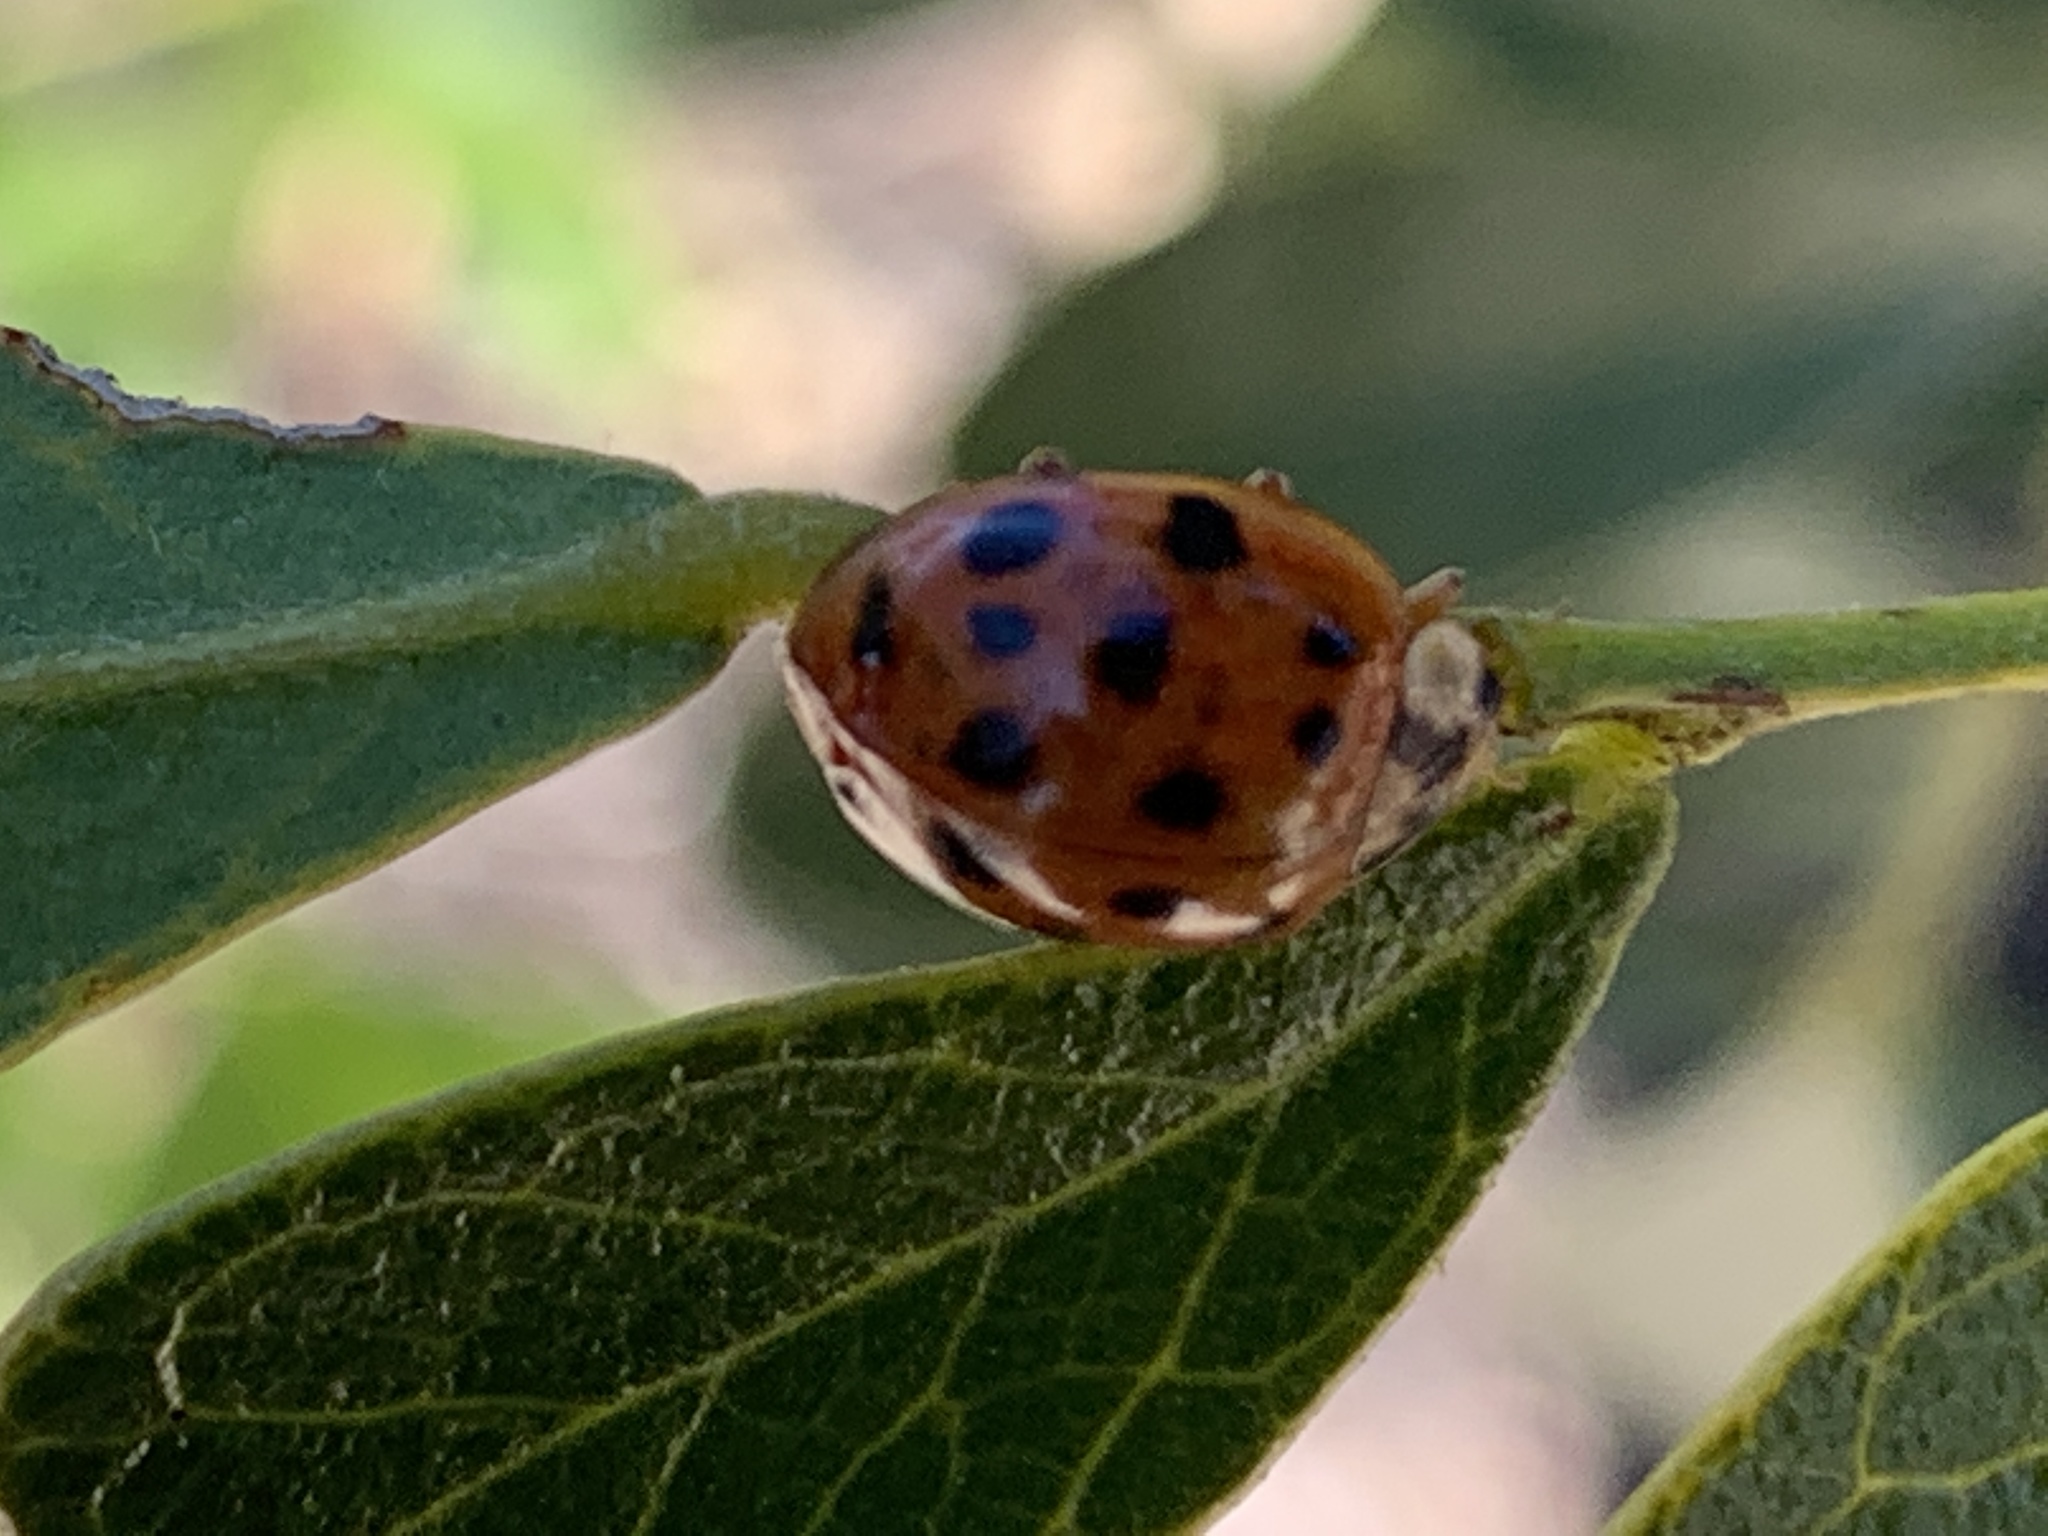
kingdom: Animalia
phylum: Arthropoda
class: Insecta
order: Coleoptera
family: Coccinellidae
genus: Harmonia
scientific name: Harmonia axyridis
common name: Harlequin ladybird
